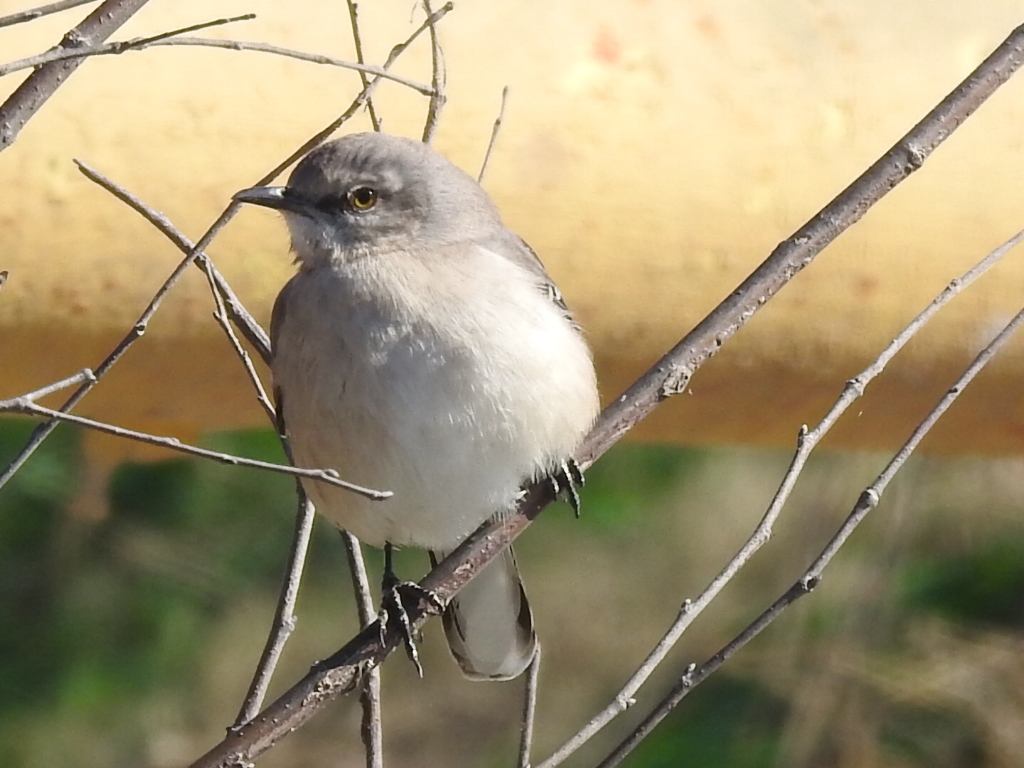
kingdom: Animalia
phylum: Chordata
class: Aves
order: Passeriformes
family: Mimidae
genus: Mimus
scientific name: Mimus polyglottos
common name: Northern mockingbird
